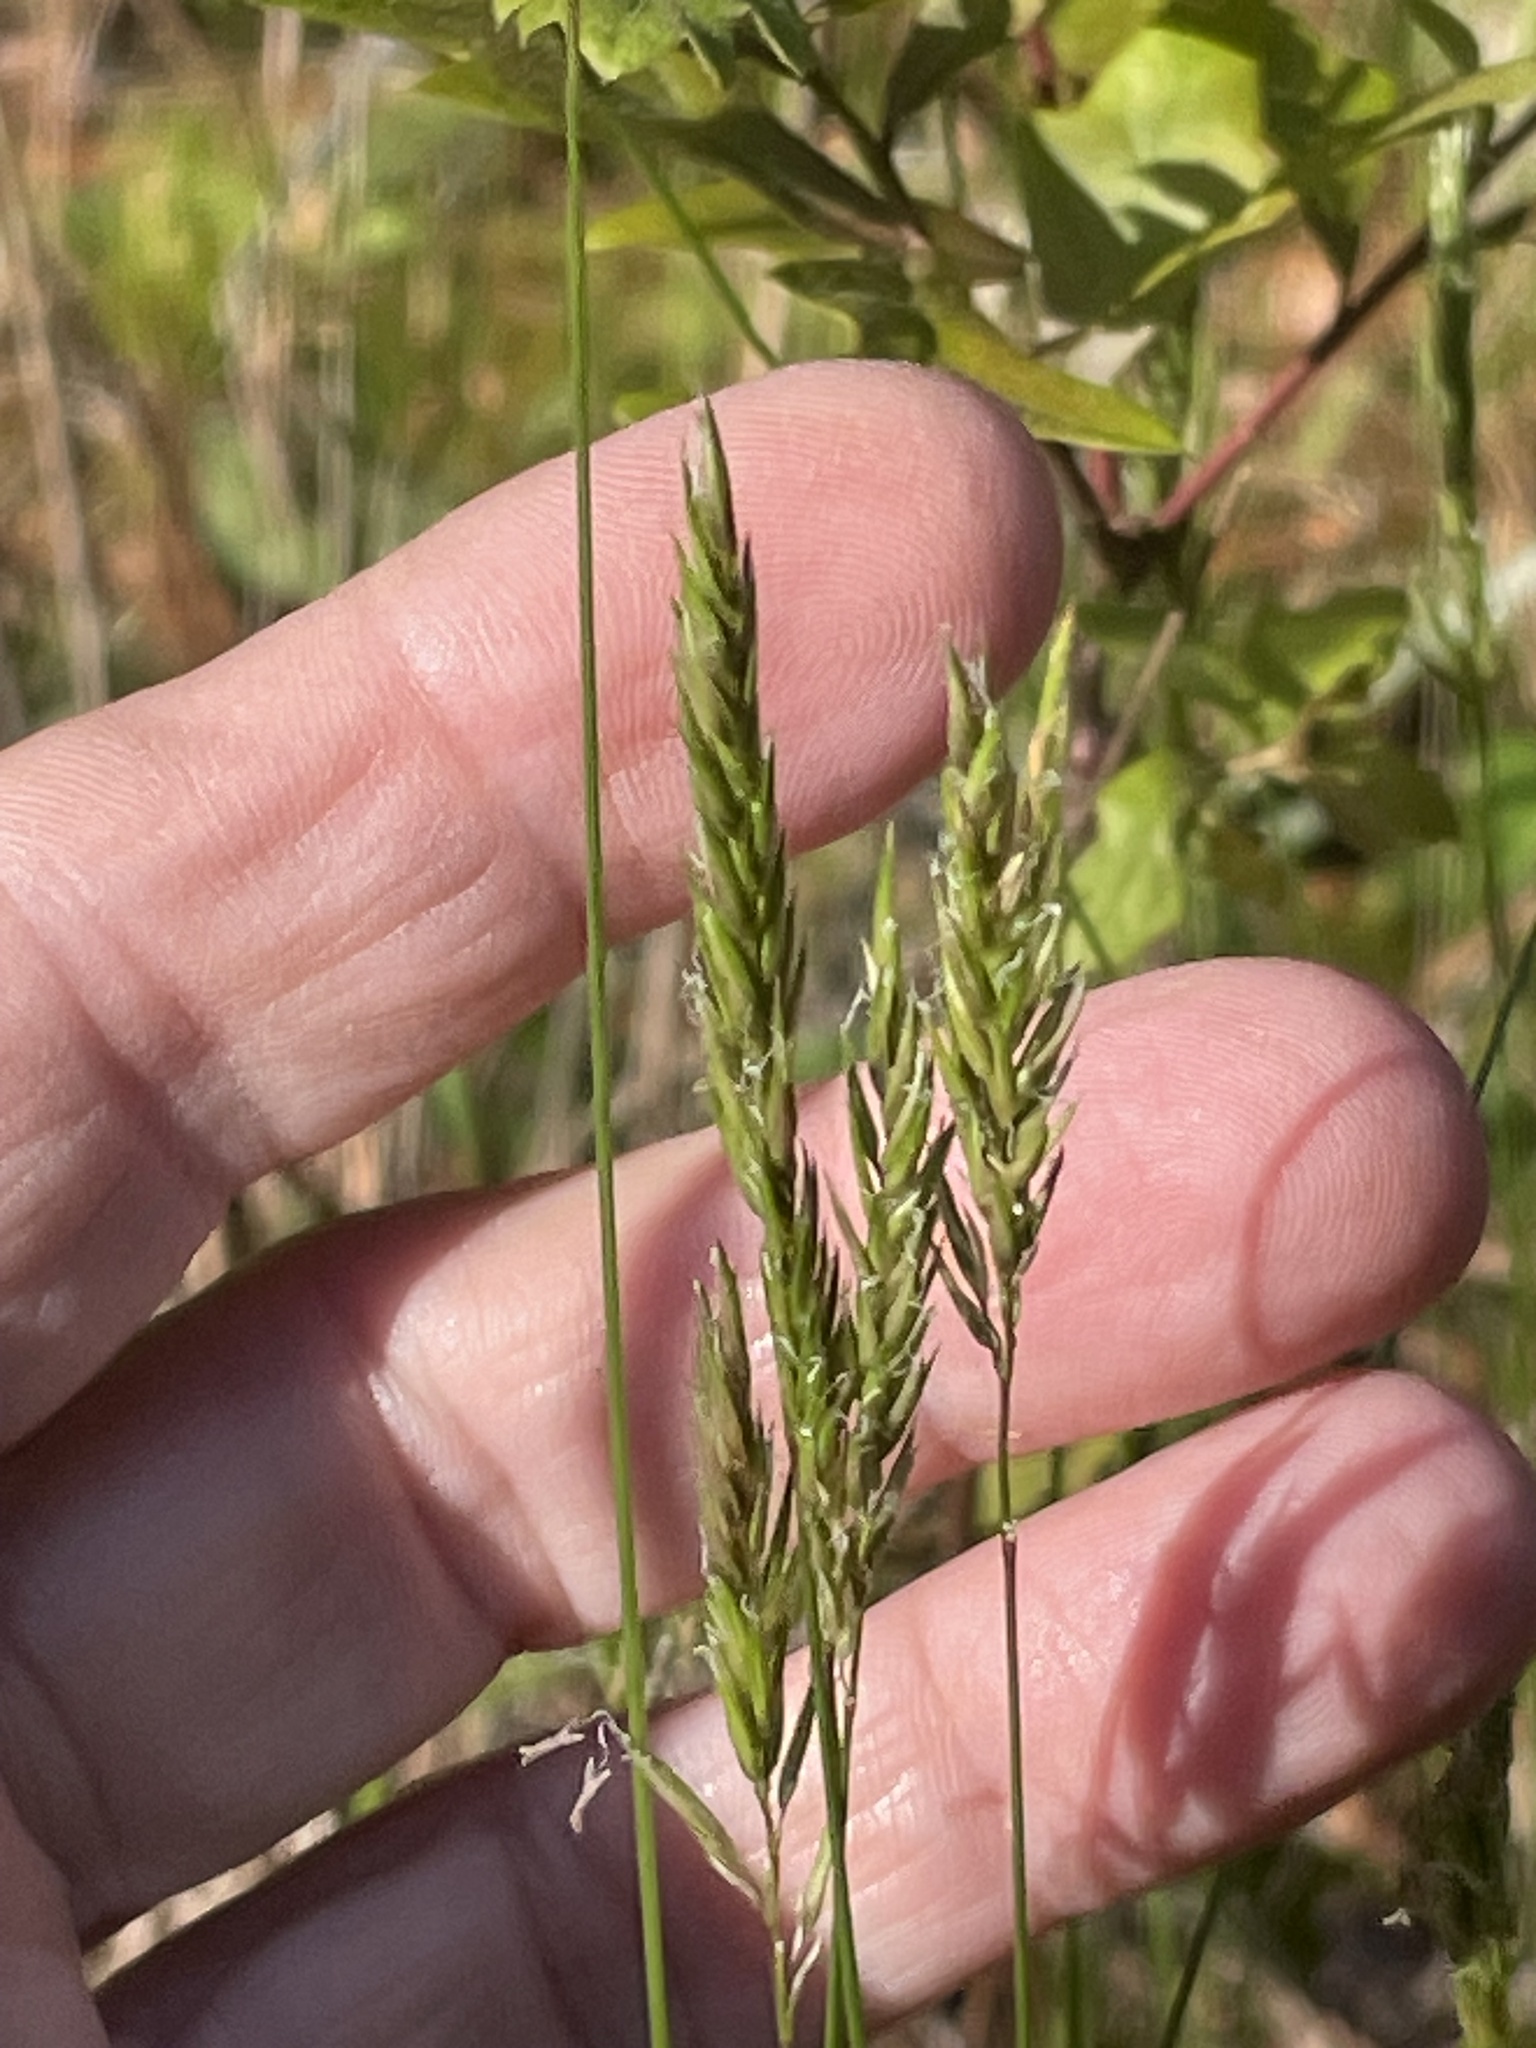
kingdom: Plantae
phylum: Tracheophyta
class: Liliopsida
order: Poales
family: Poaceae
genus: Anthoxanthum
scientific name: Anthoxanthum odoratum
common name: Sweet vernalgrass
